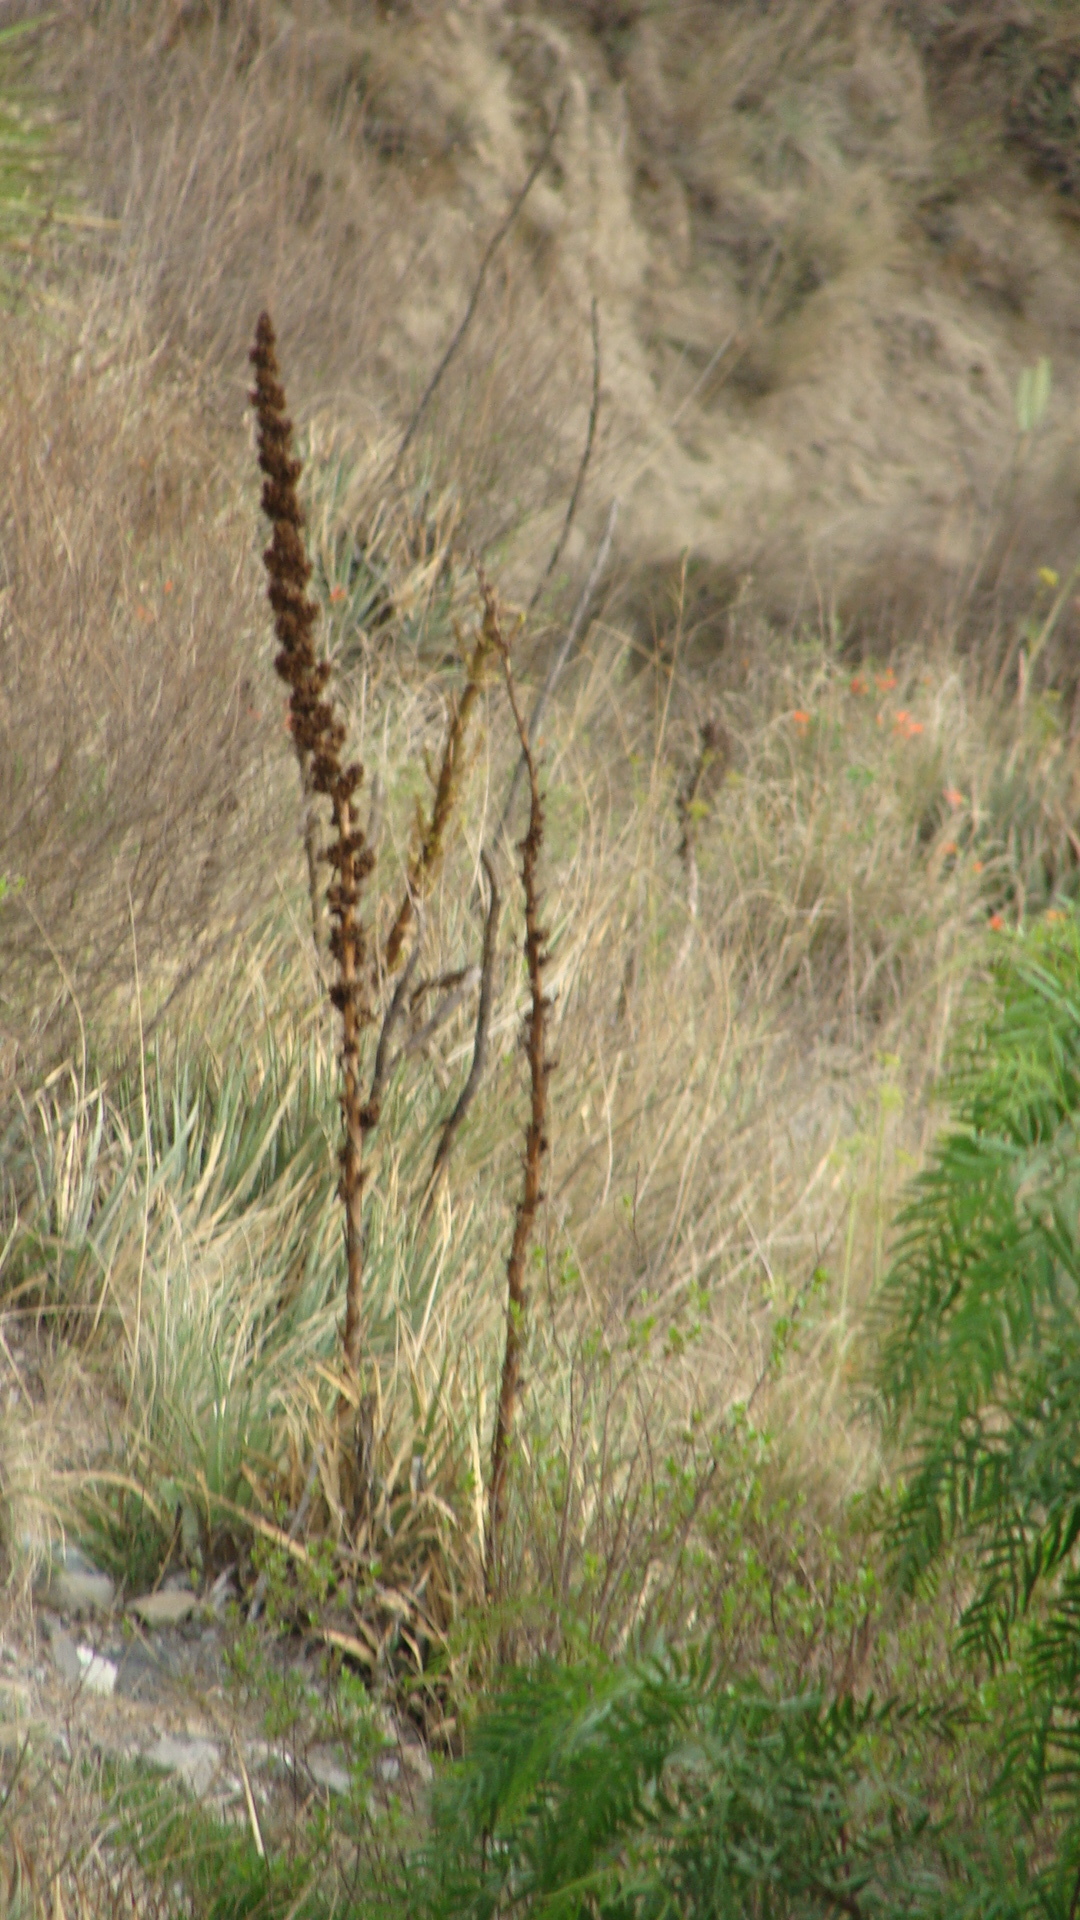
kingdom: Plantae
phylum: Tracheophyta
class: Liliopsida
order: Poales
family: Bromeliaceae
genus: Hechtia
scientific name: Hechtia perotensis
